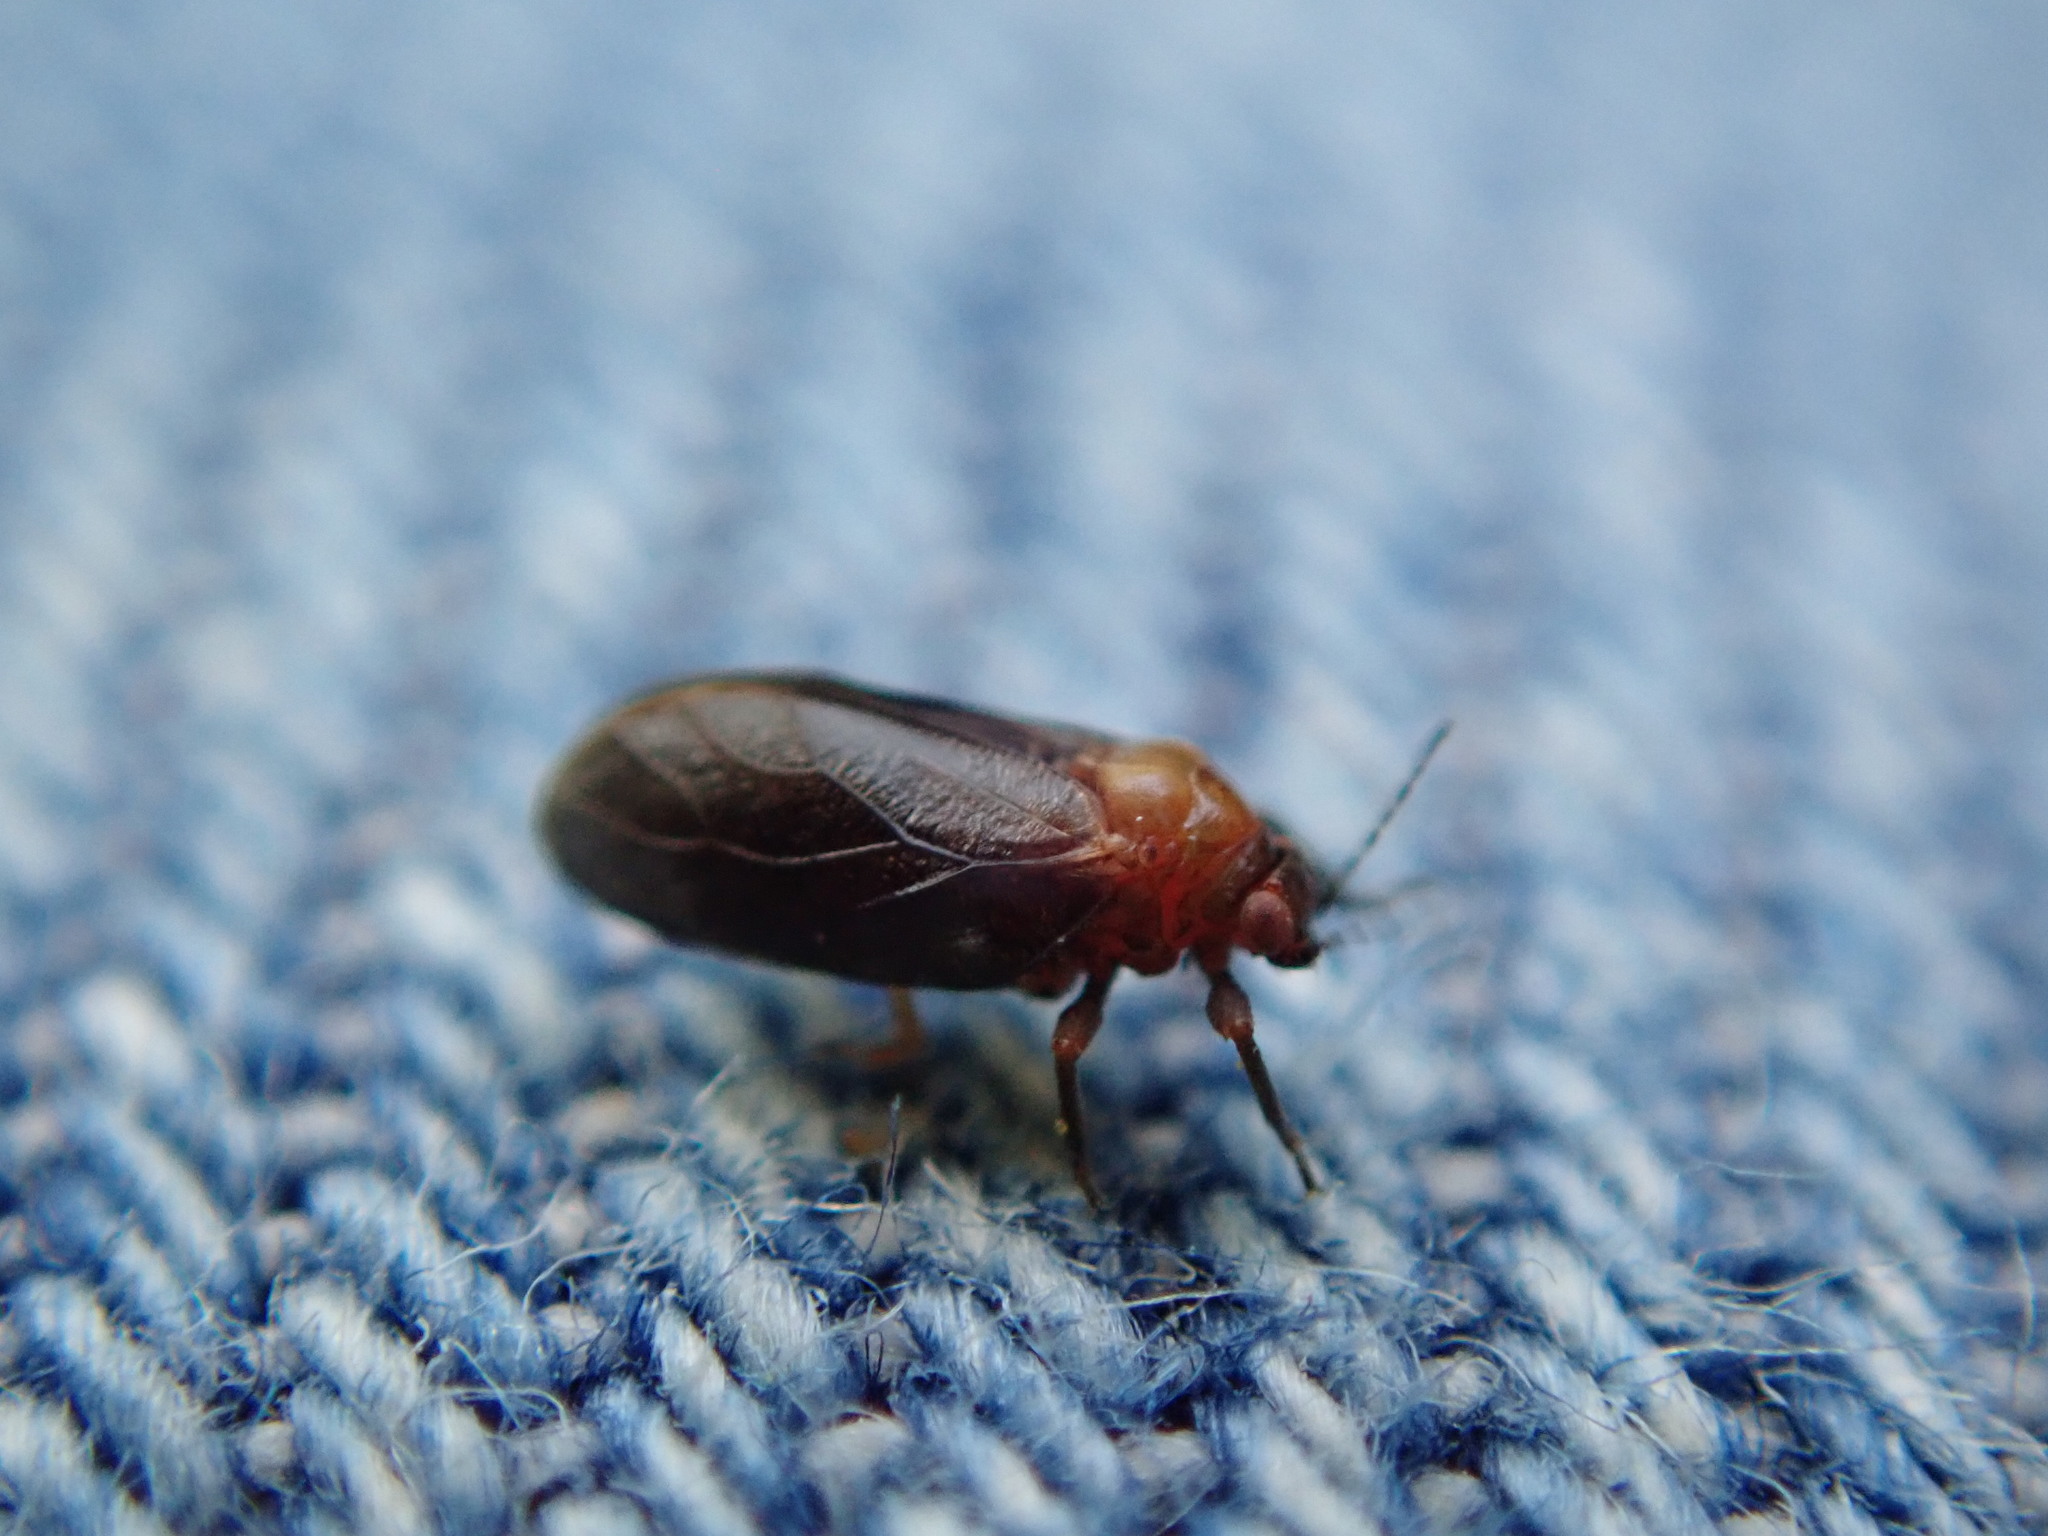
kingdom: Animalia
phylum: Arthropoda
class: Insecta
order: Hemiptera
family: Aphalaridae
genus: Pachypsylla
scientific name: Pachypsylla celtidisgemma
